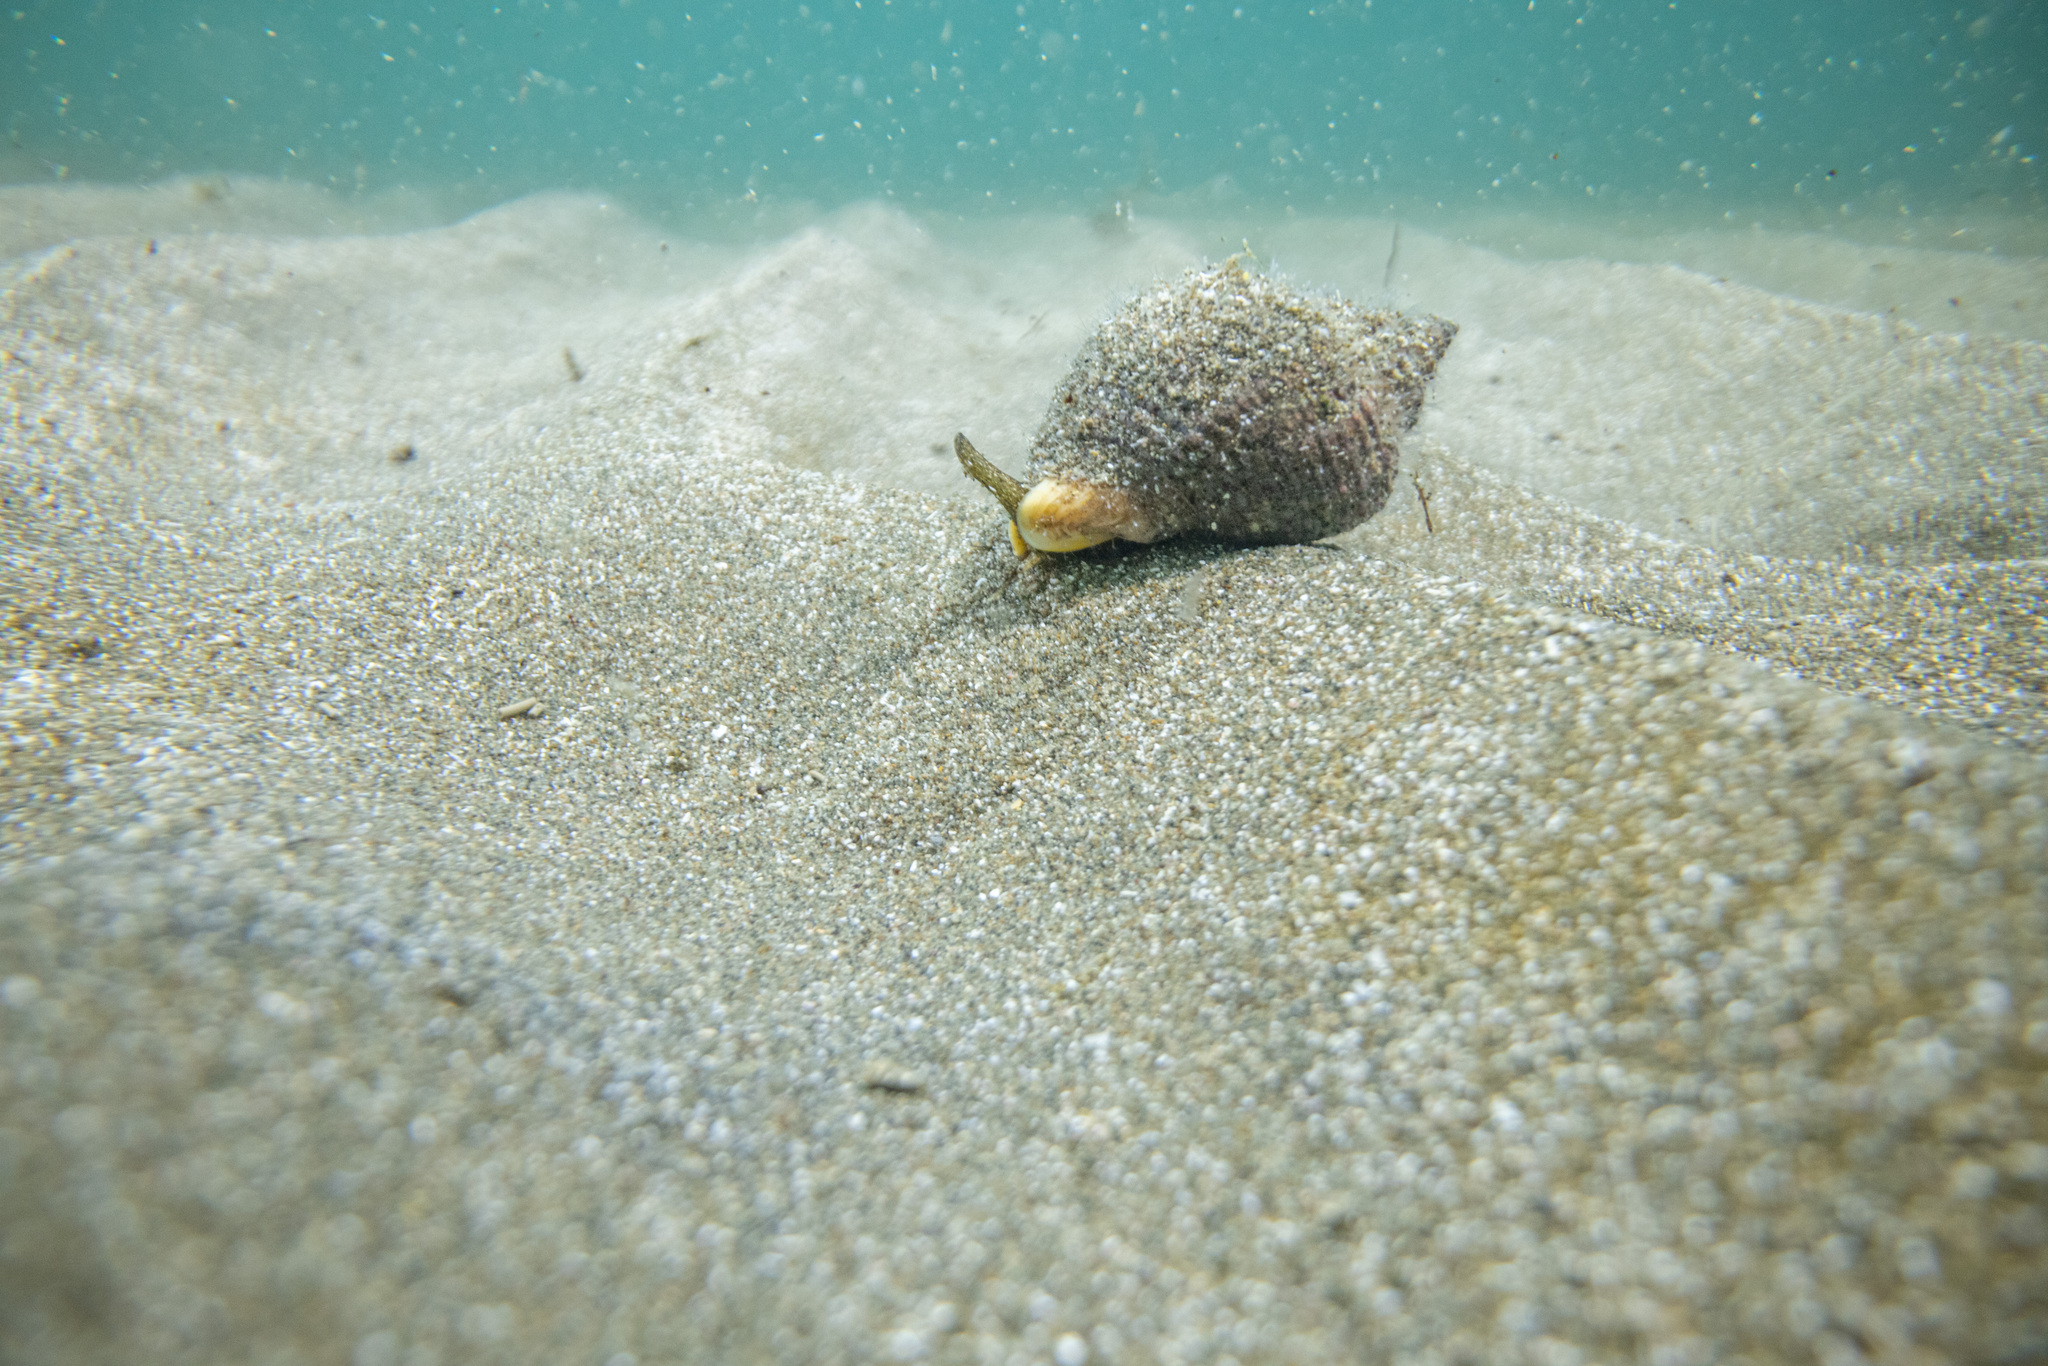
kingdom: Animalia
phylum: Mollusca
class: Gastropoda
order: Neogastropoda
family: Cominellidae
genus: Cominella
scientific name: Cominella adspersa
